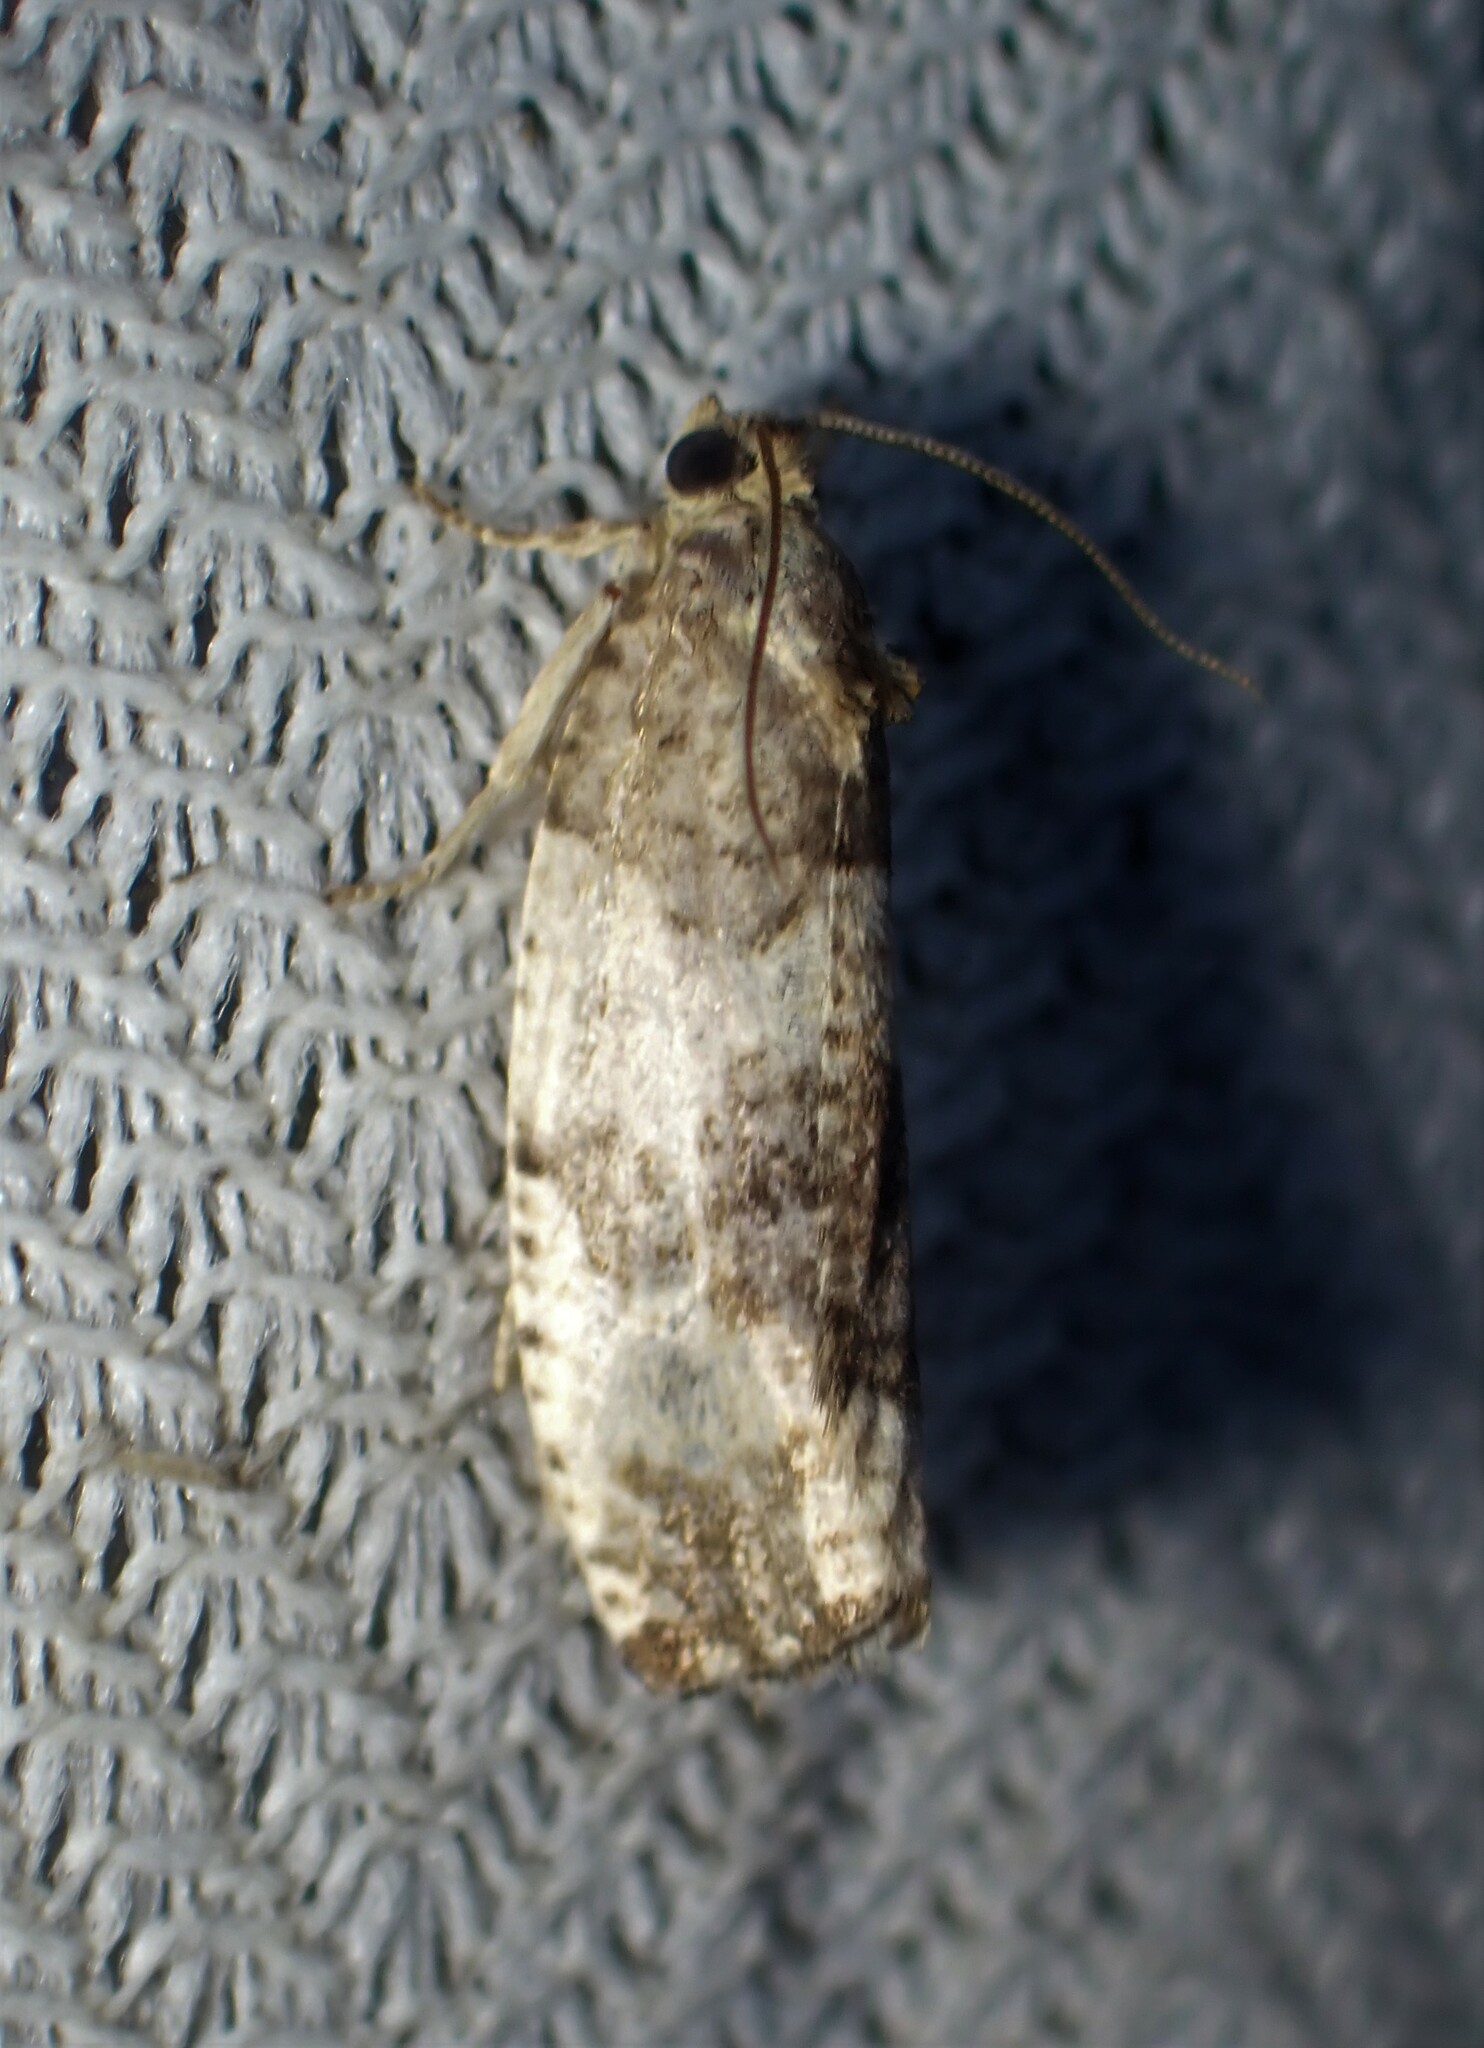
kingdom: Animalia
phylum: Arthropoda
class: Insecta
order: Lepidoptera
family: Tortricidae
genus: Pseudosciaphila
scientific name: Pseudosciaphila duplex
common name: Poplar leafroller moth
